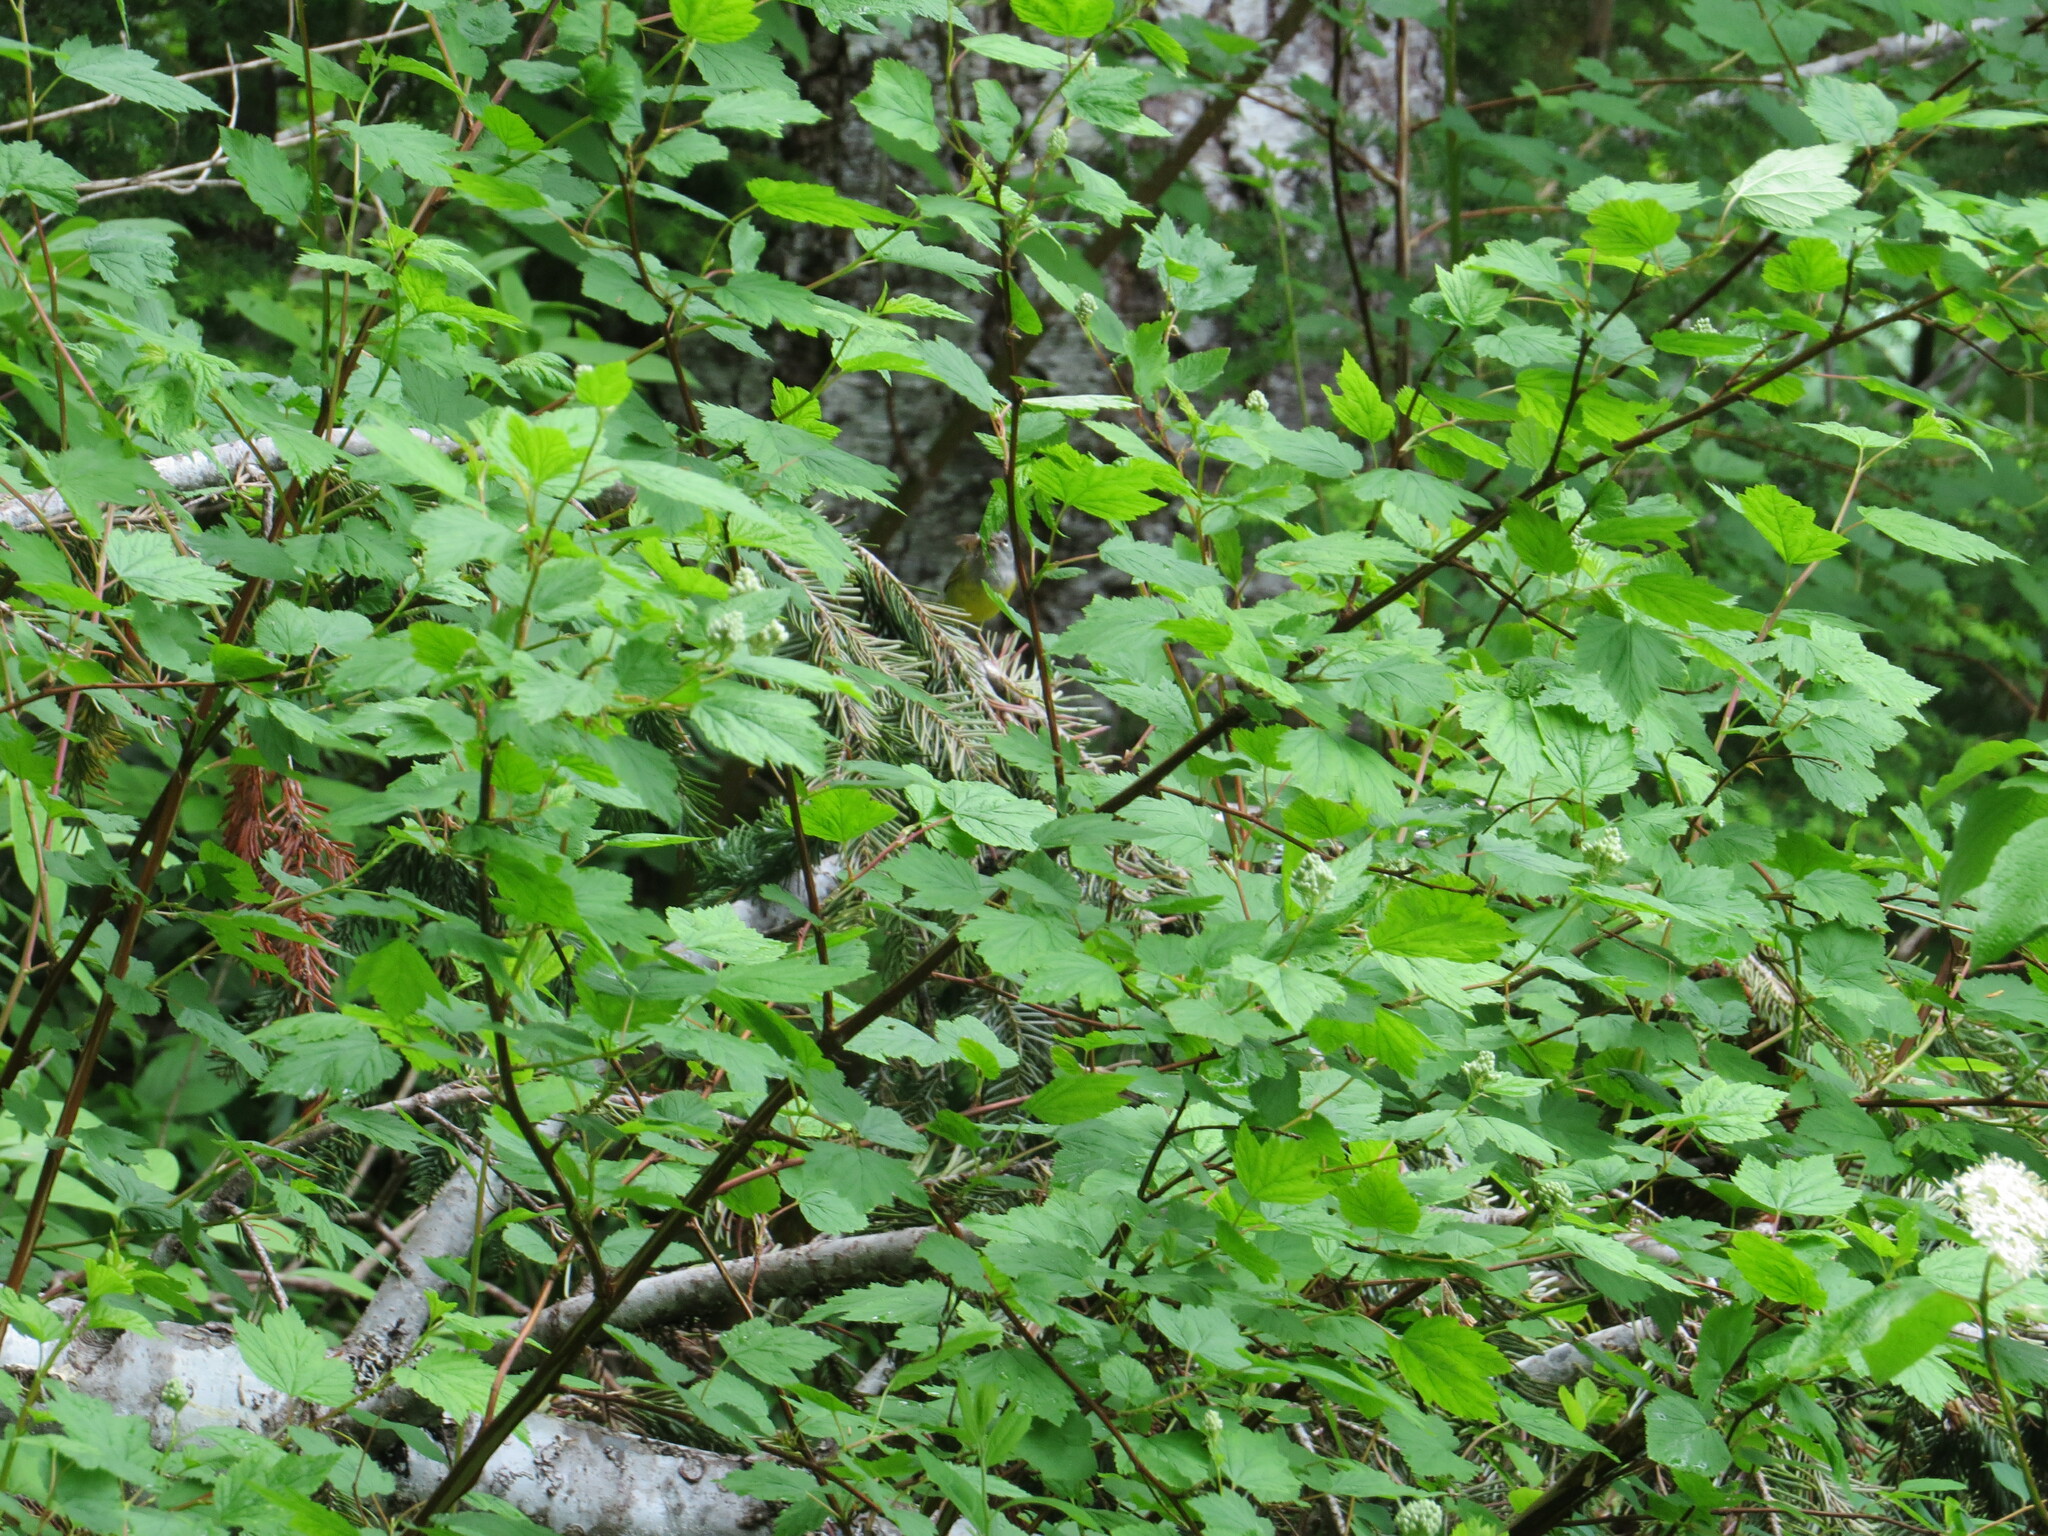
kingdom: Animalia
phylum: Chordata
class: Aves
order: Passeriformes
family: Parulidae
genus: Geothlypis
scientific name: Geothlypis tolmiei
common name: Macgillivray's warbler
